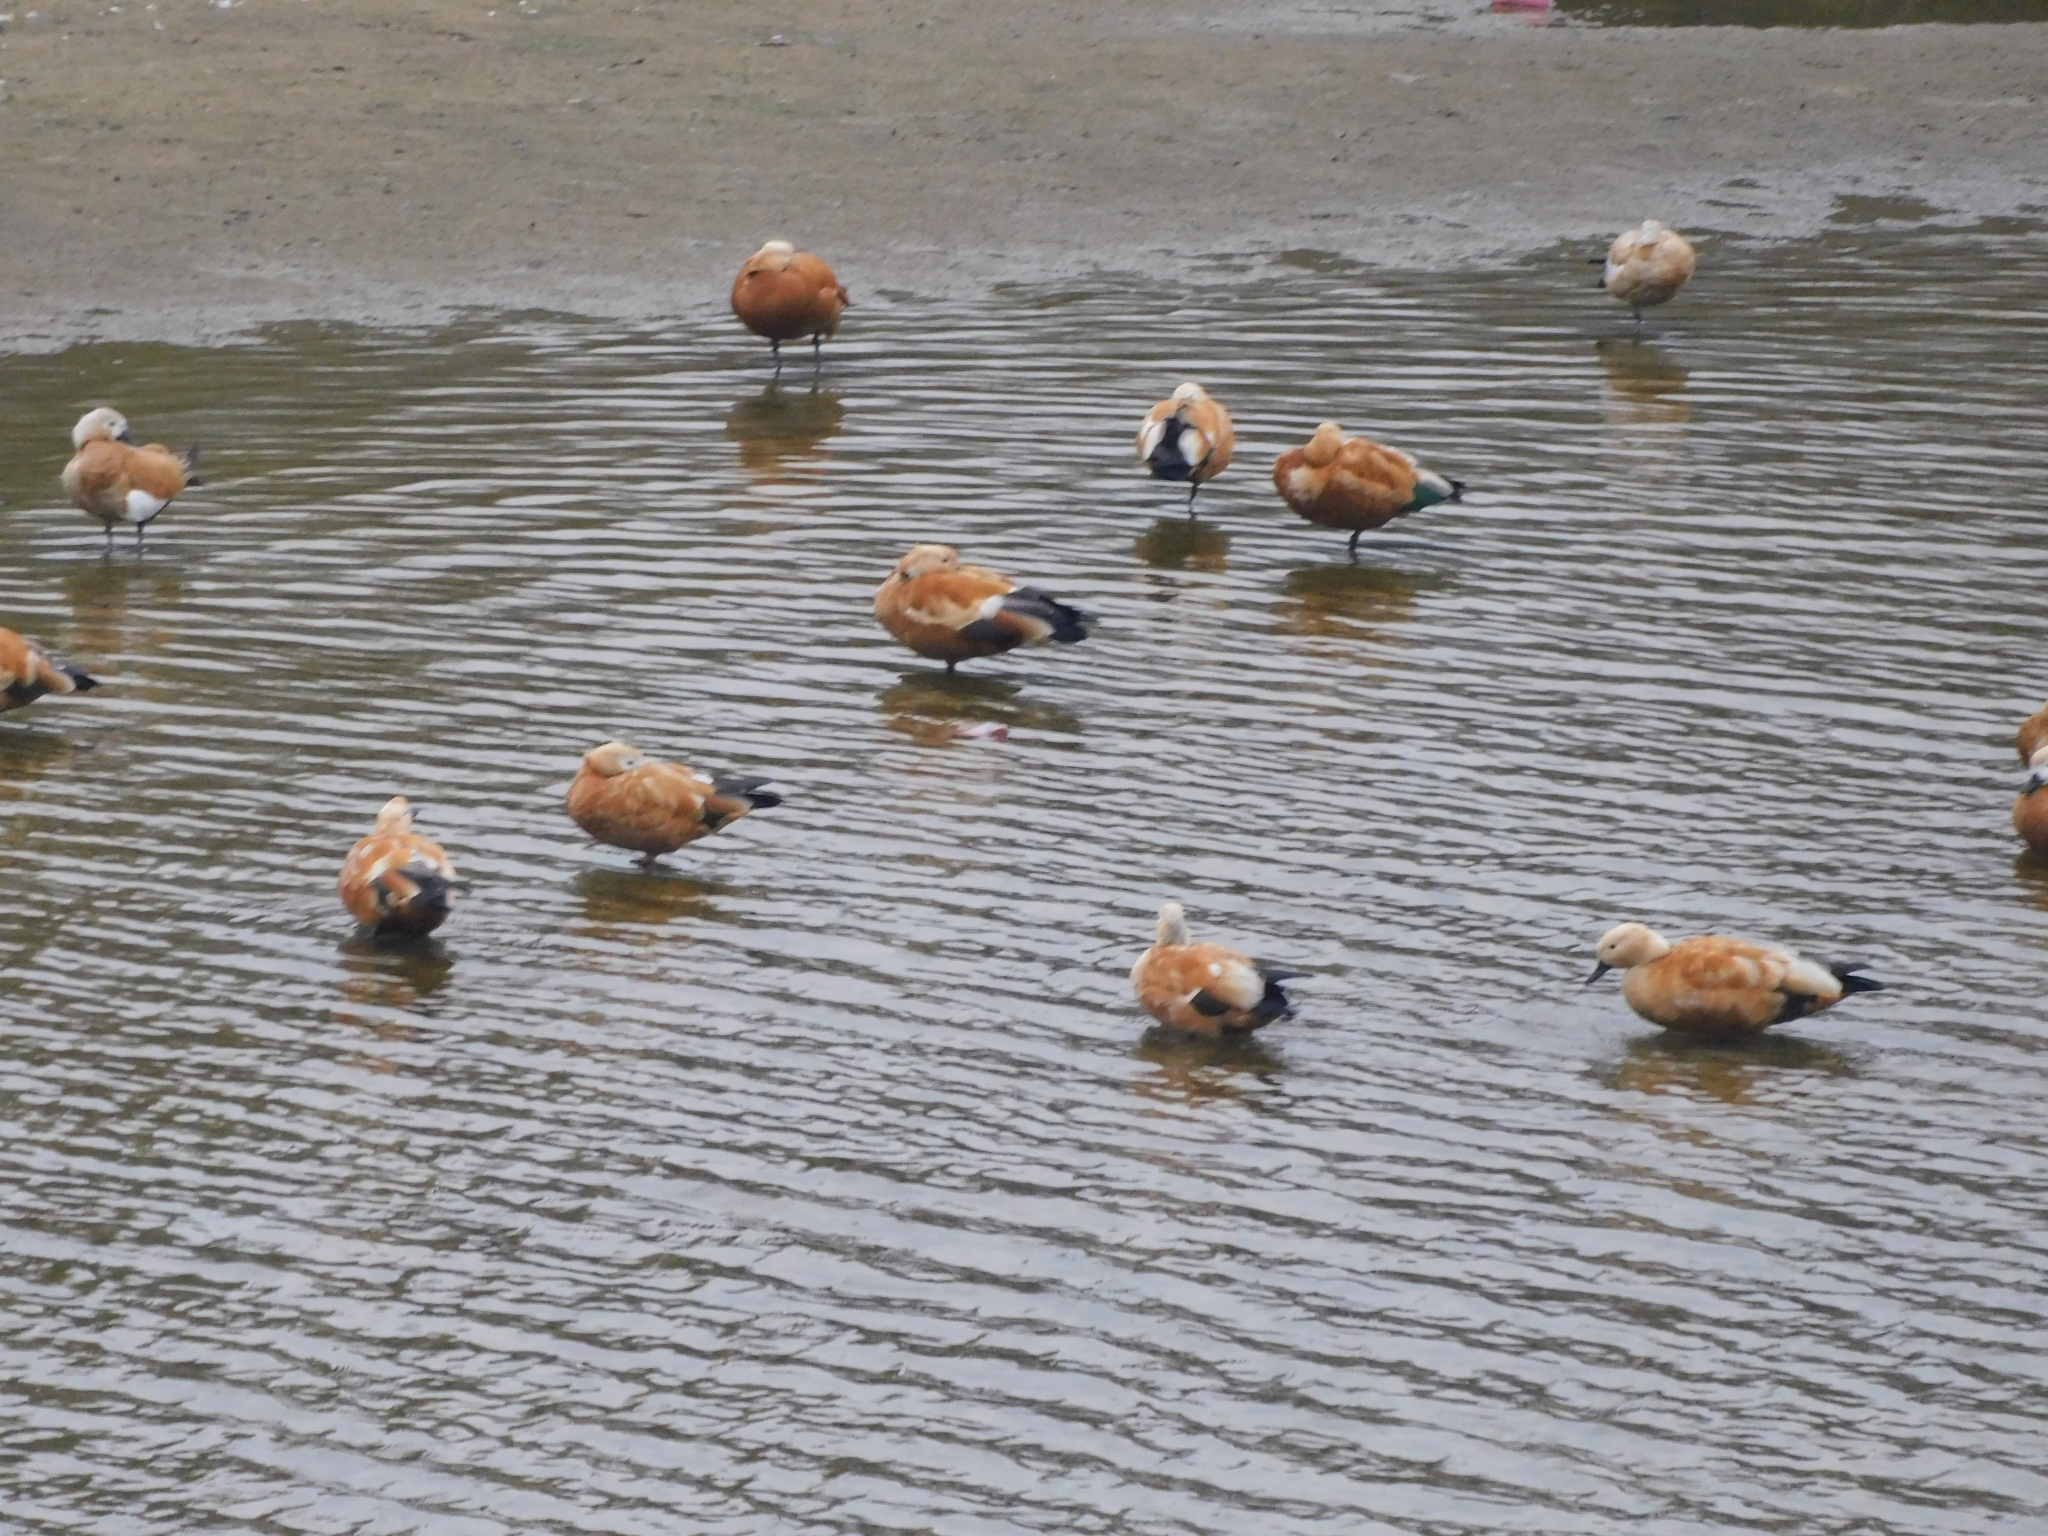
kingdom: Animalia
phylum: Chordata
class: Aves
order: Anseriformes
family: Anatidae
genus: Tadorna
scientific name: Tadorna ferruginea
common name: Ruddy shelduck
